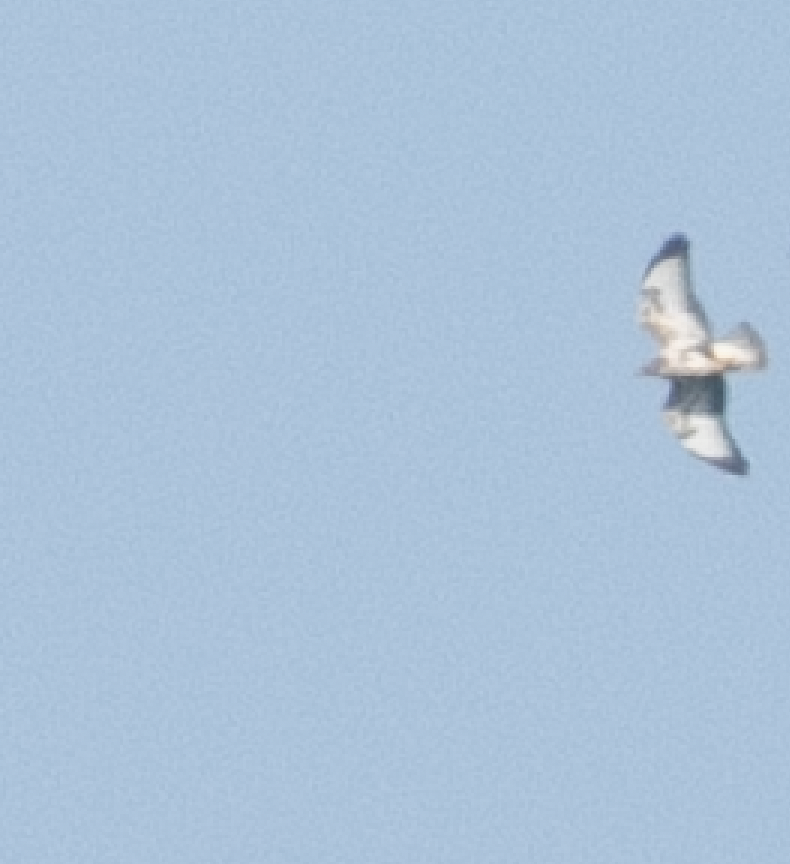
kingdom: Animalia
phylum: Chordata
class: Aves
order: Accipitriformes
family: Accipitridae
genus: Buteo
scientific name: Buteo buteo
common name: Common buzzard
